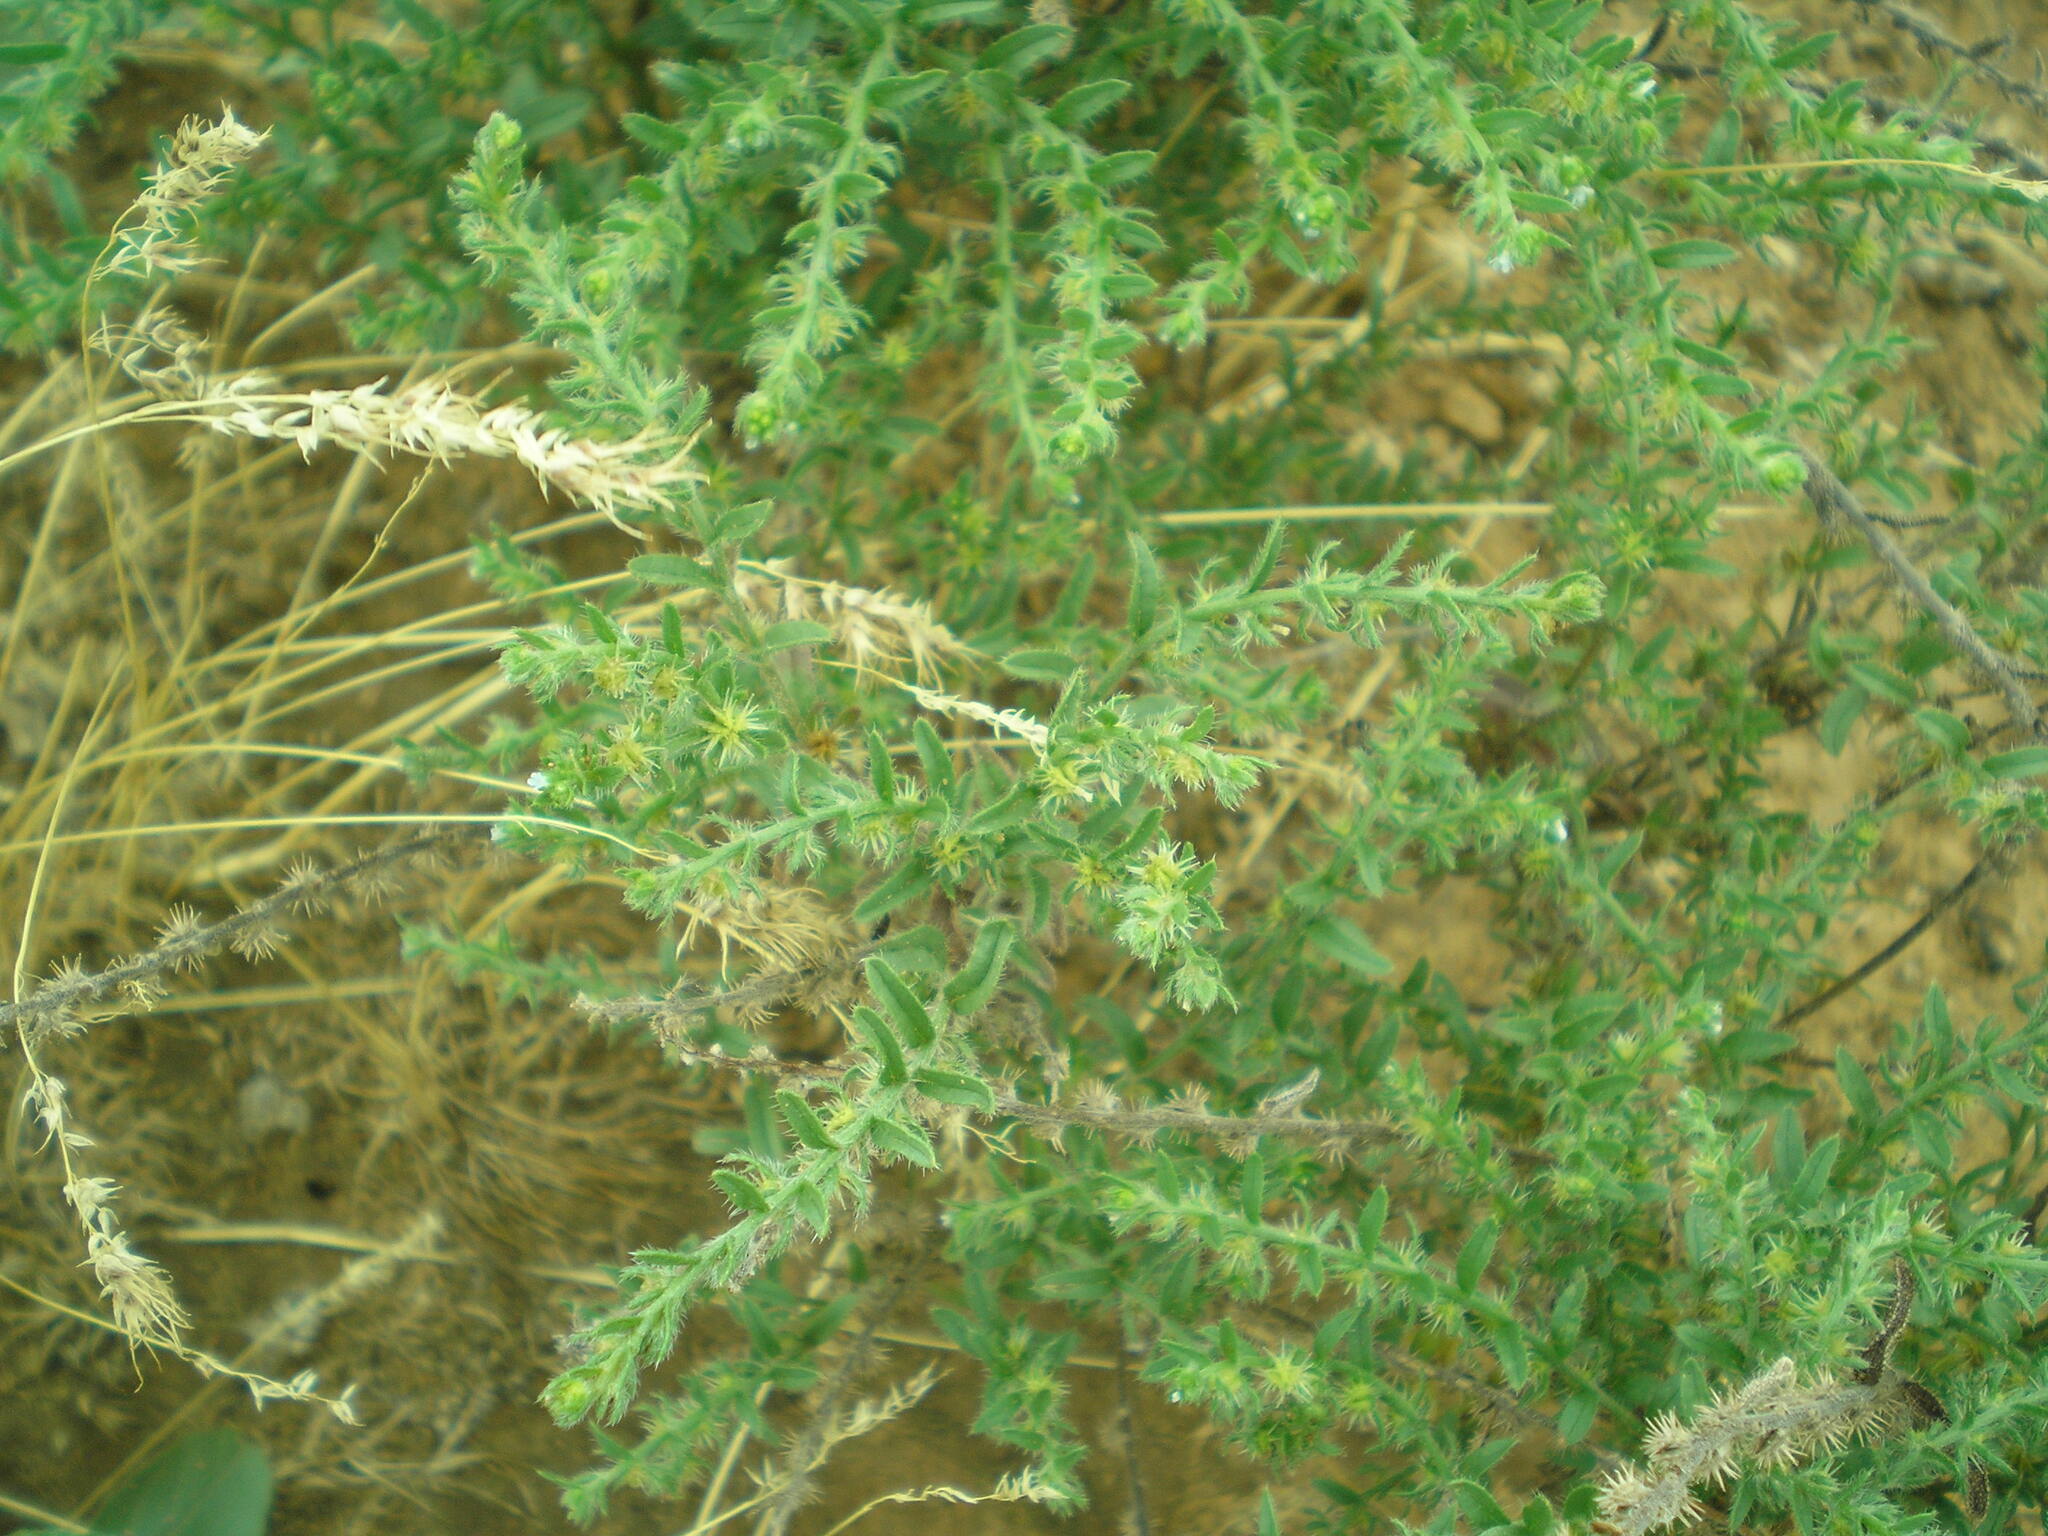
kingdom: Plantae
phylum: Tracheophyta
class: Magnoliopsida
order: Boraginales
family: Boraginaceae
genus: Lappula
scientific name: Lappula squarrosa
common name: European stickseed
